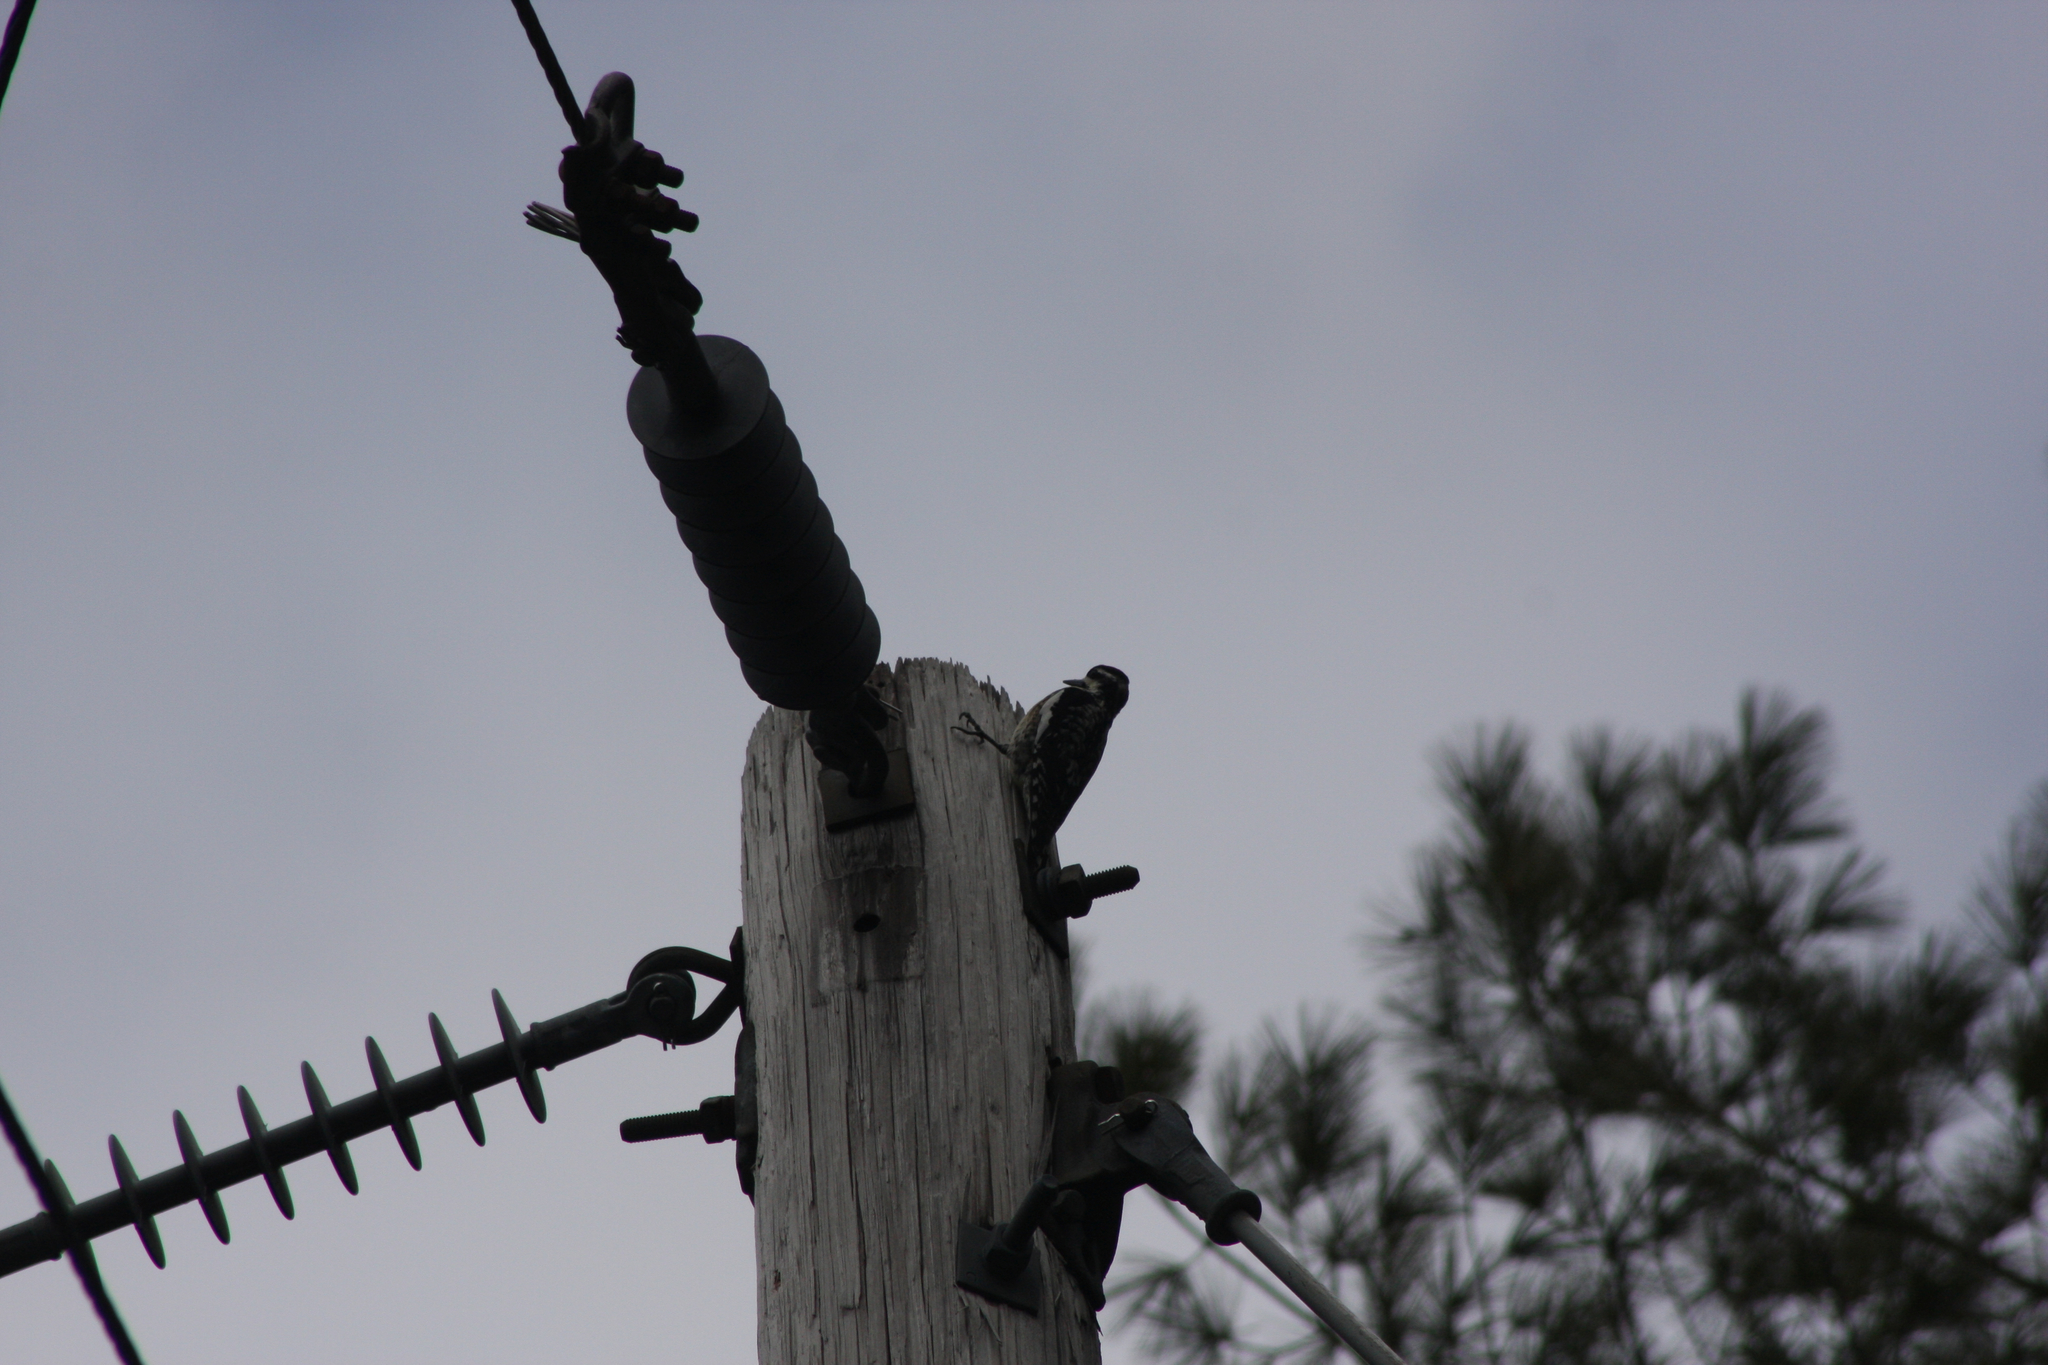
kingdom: Animalia
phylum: Chordata
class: Aves
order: Piciformes
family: Picidae
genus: Sphyrapicus
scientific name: Sphyrapicus varius
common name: Yellow-bellied sapsucker
